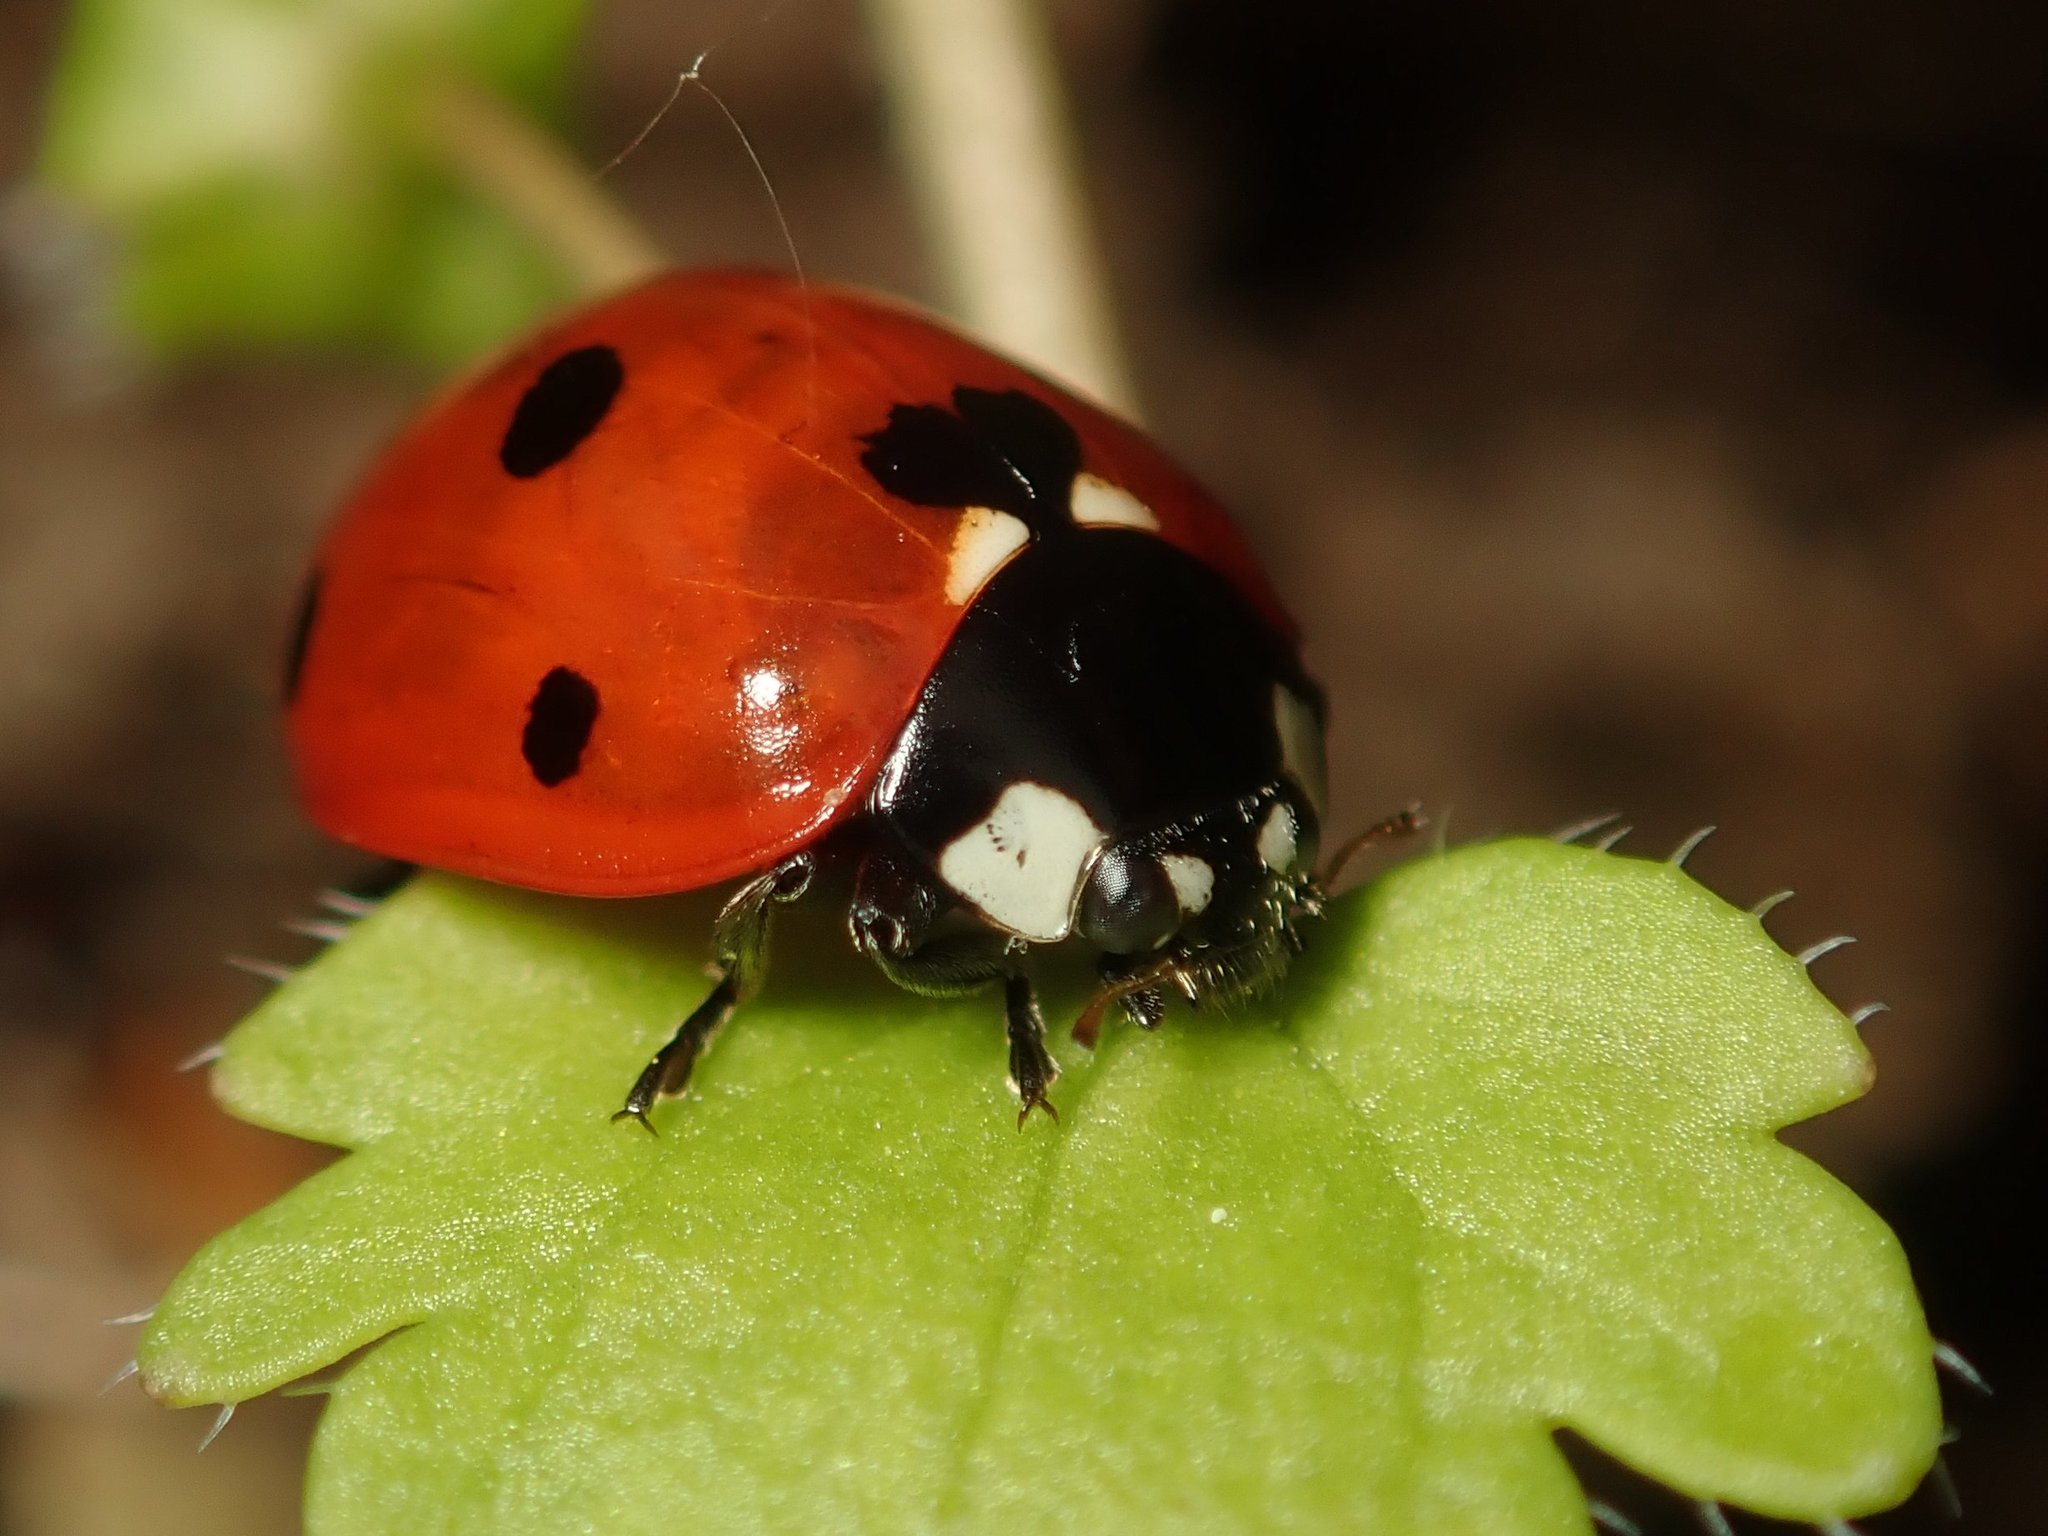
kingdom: Animalia
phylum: Arthropoda
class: Insecta
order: Coleoptera
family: Coccinellidae
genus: Coccinella
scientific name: Coccinella septempunctata
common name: Sevenspotted lady beetle
